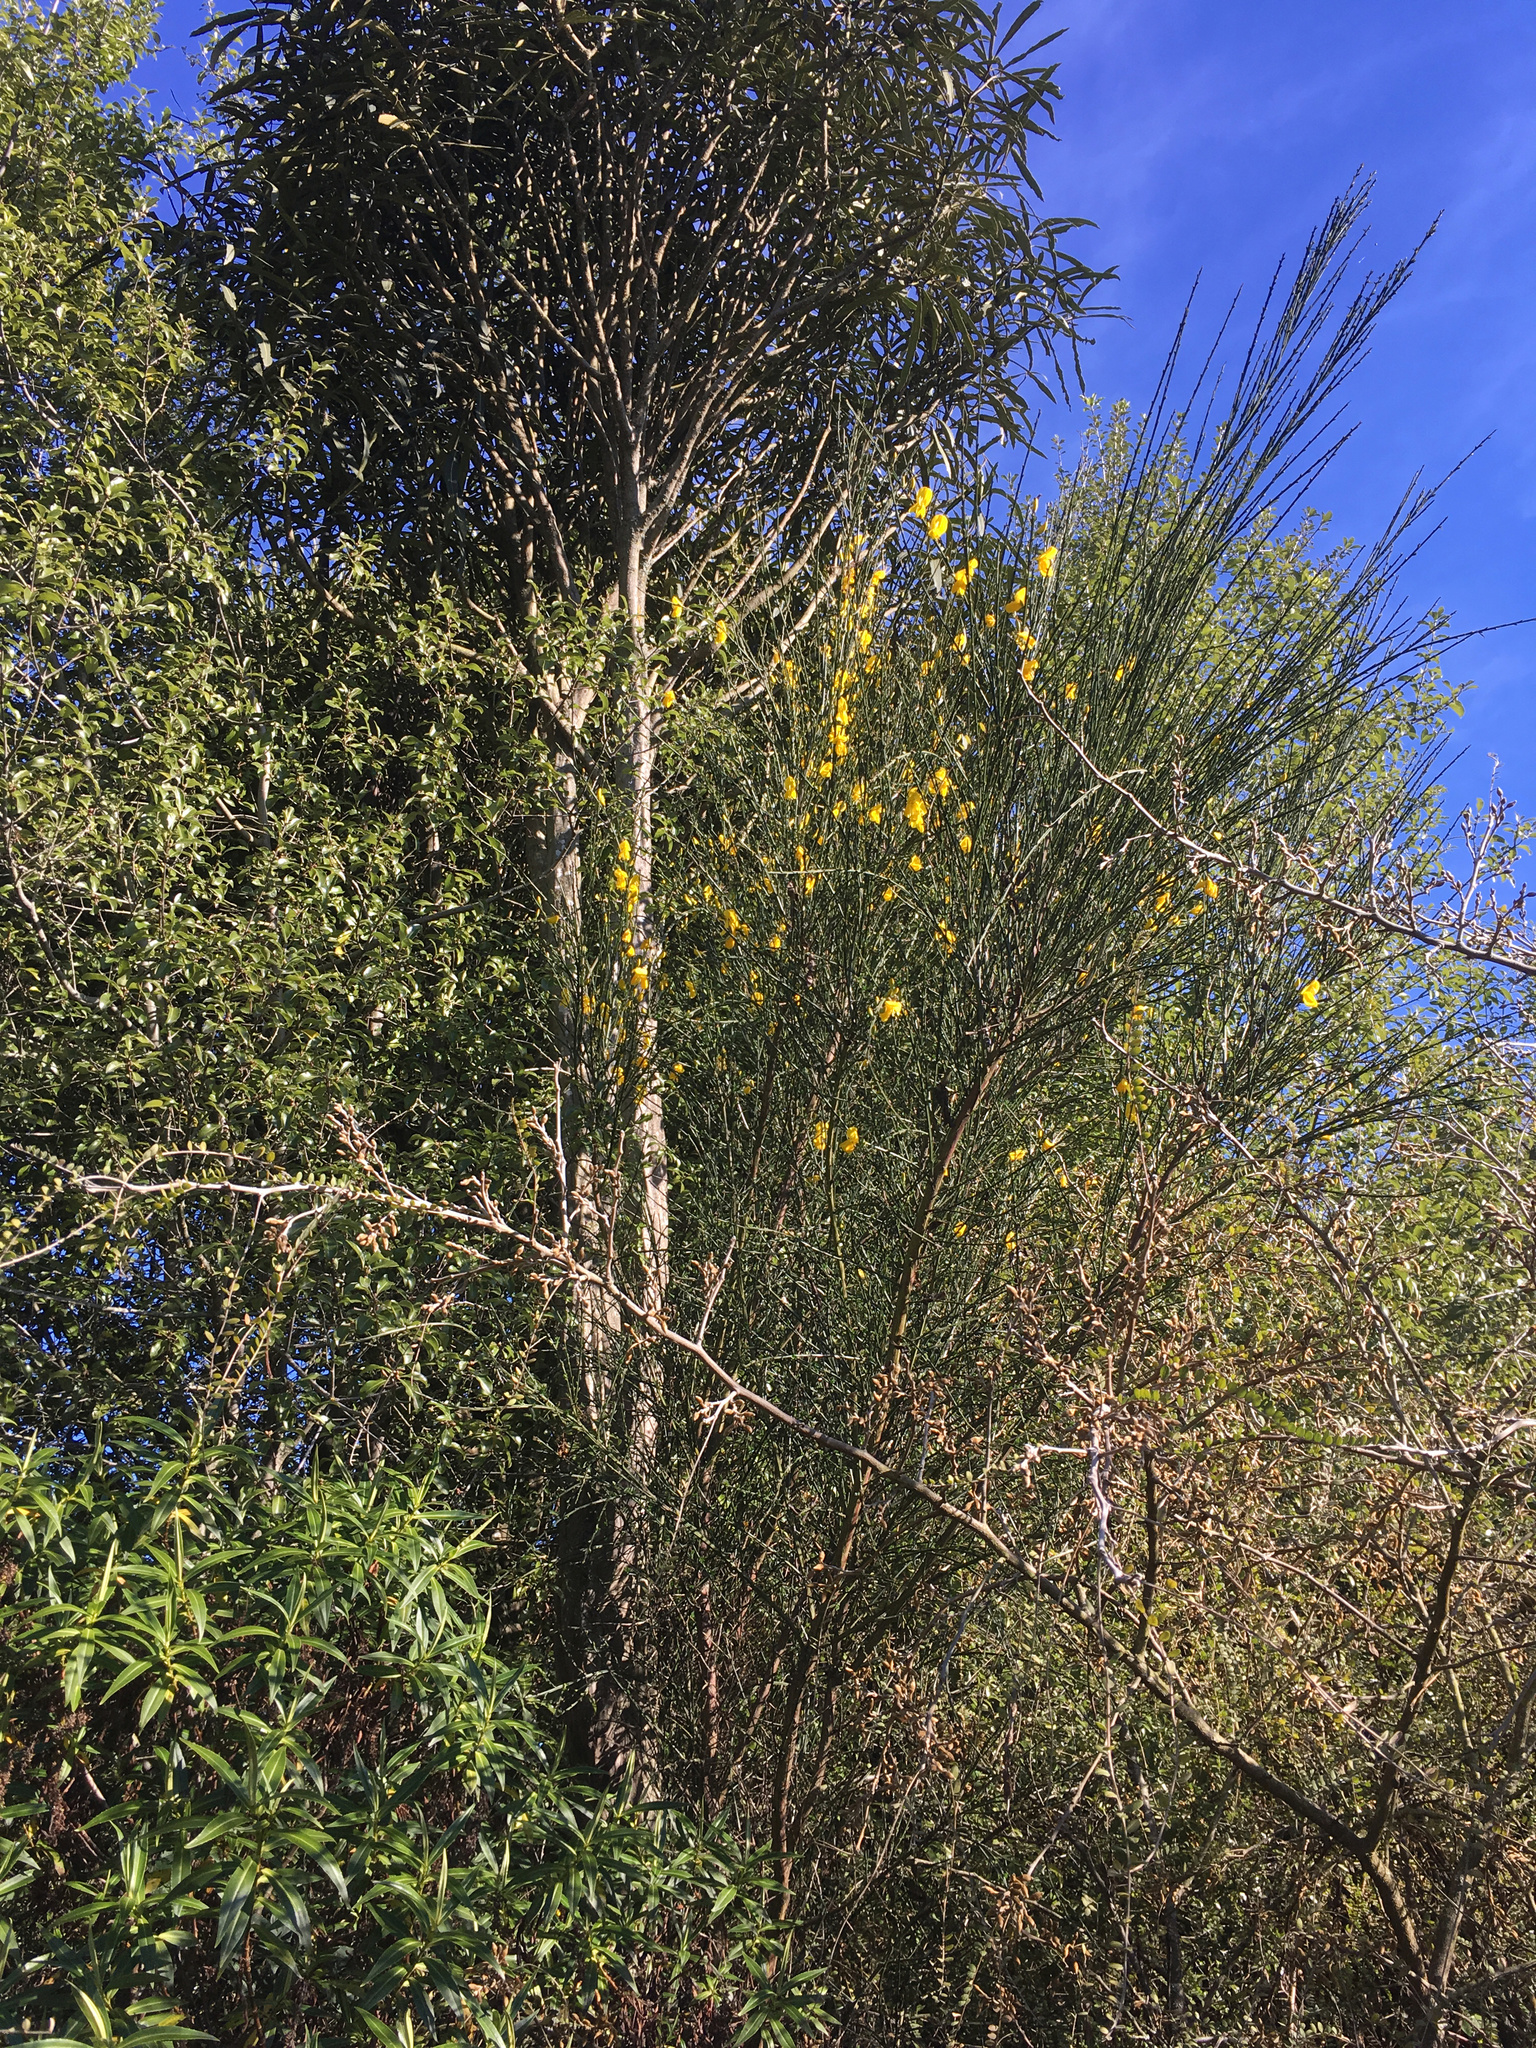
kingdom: Plantae
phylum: Tracheophyta
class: Magnoliopsida
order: Fabales
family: Fabaceae
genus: Cytisus
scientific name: Cytisus scoparius
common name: Scotch broom
